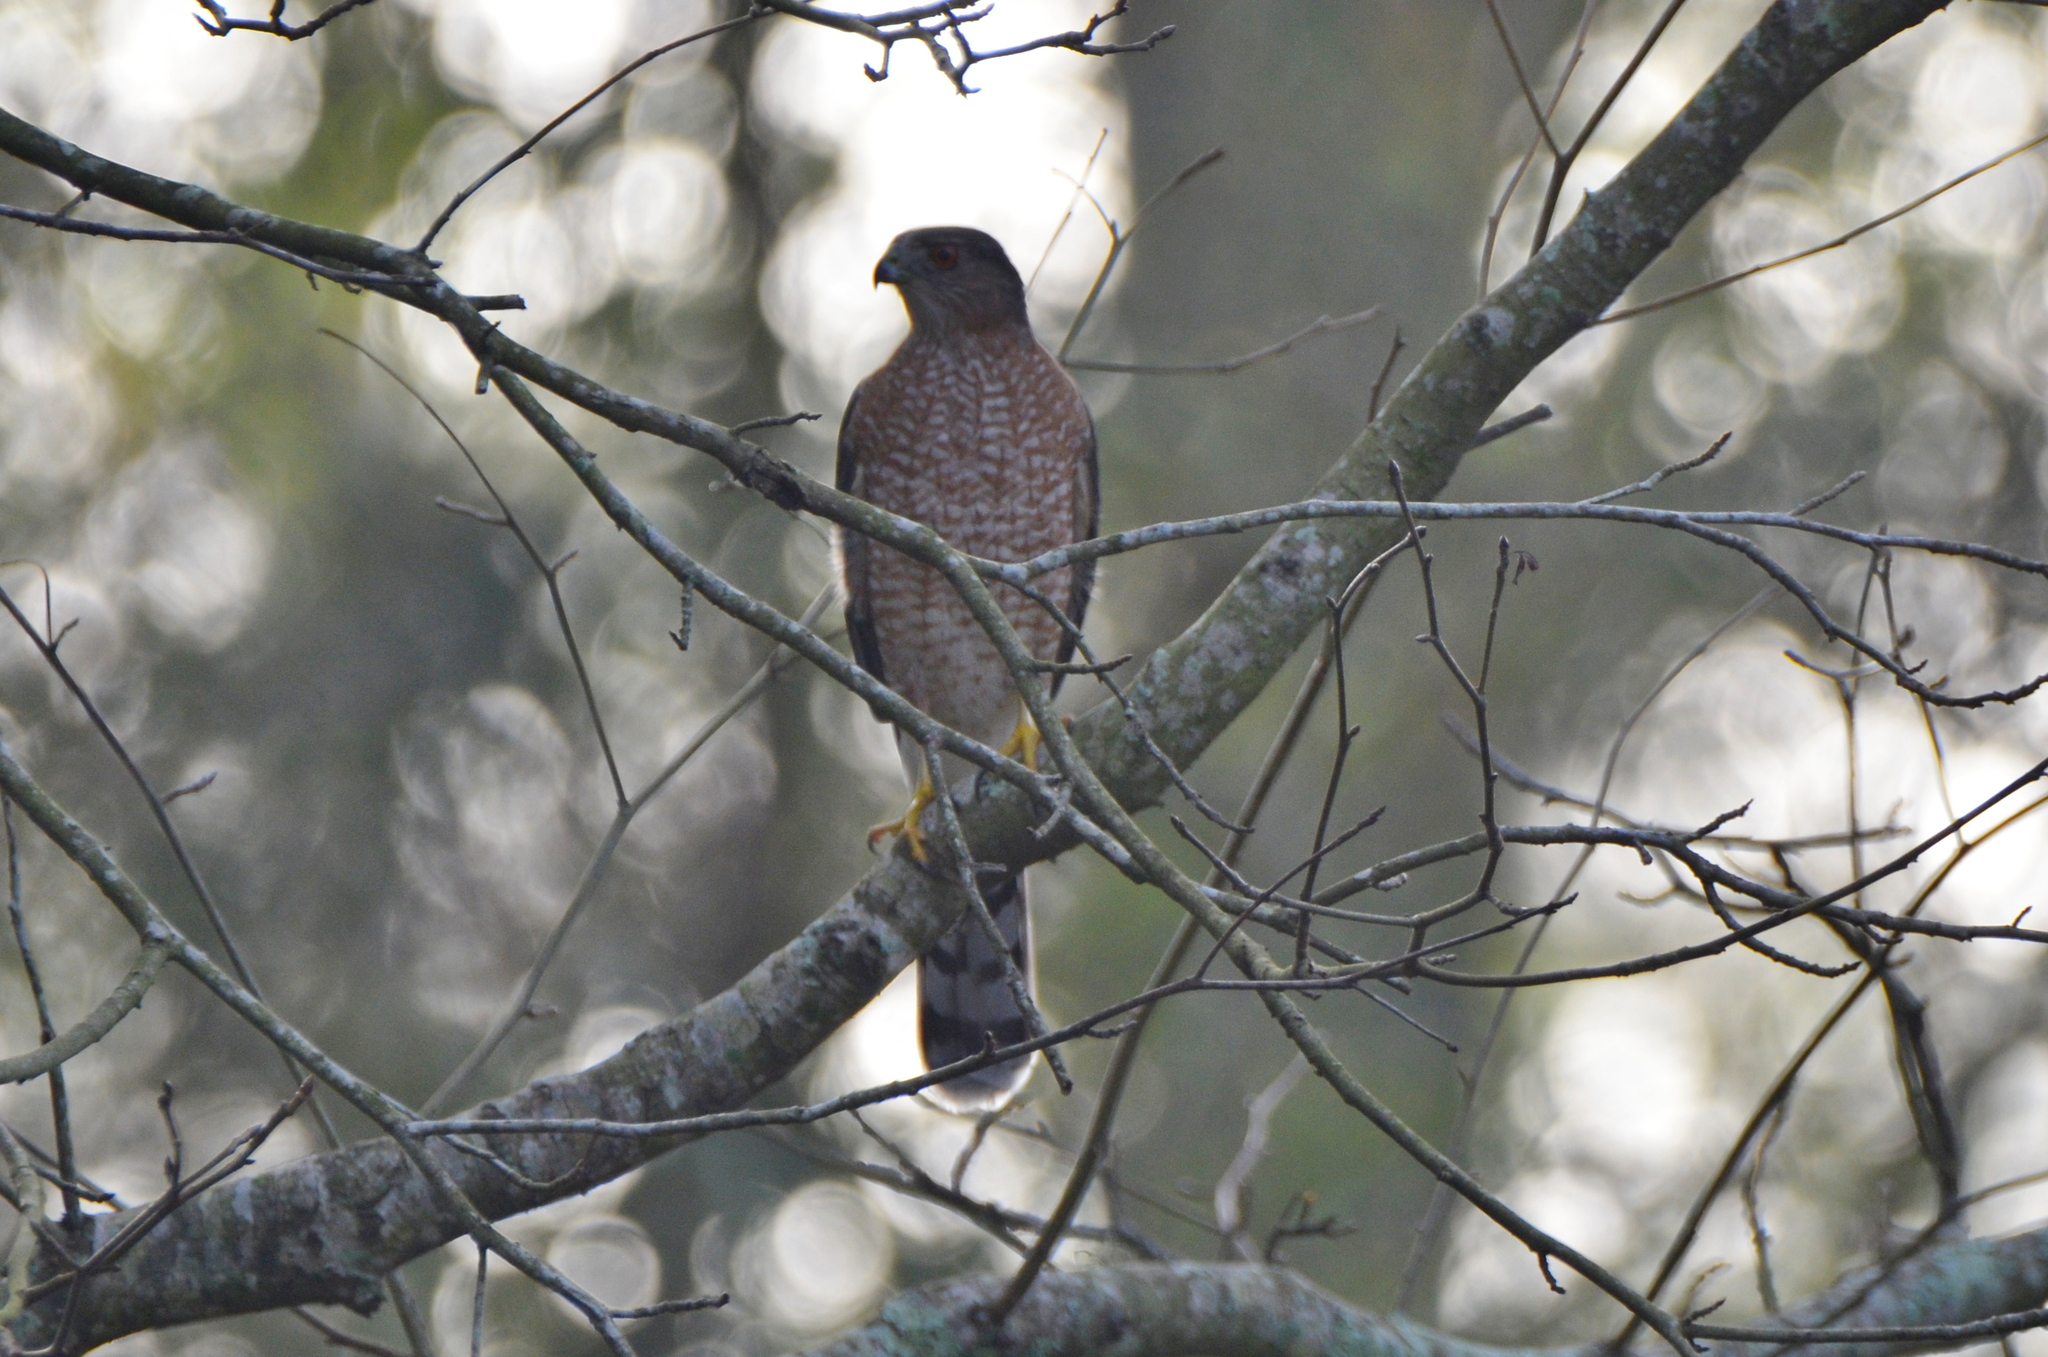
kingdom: Animalia
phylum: Chordata
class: Aves
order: Accipitriformes
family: Accipitridae
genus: Accipiter
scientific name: Accipiter cooperii
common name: Cooper's hawk
